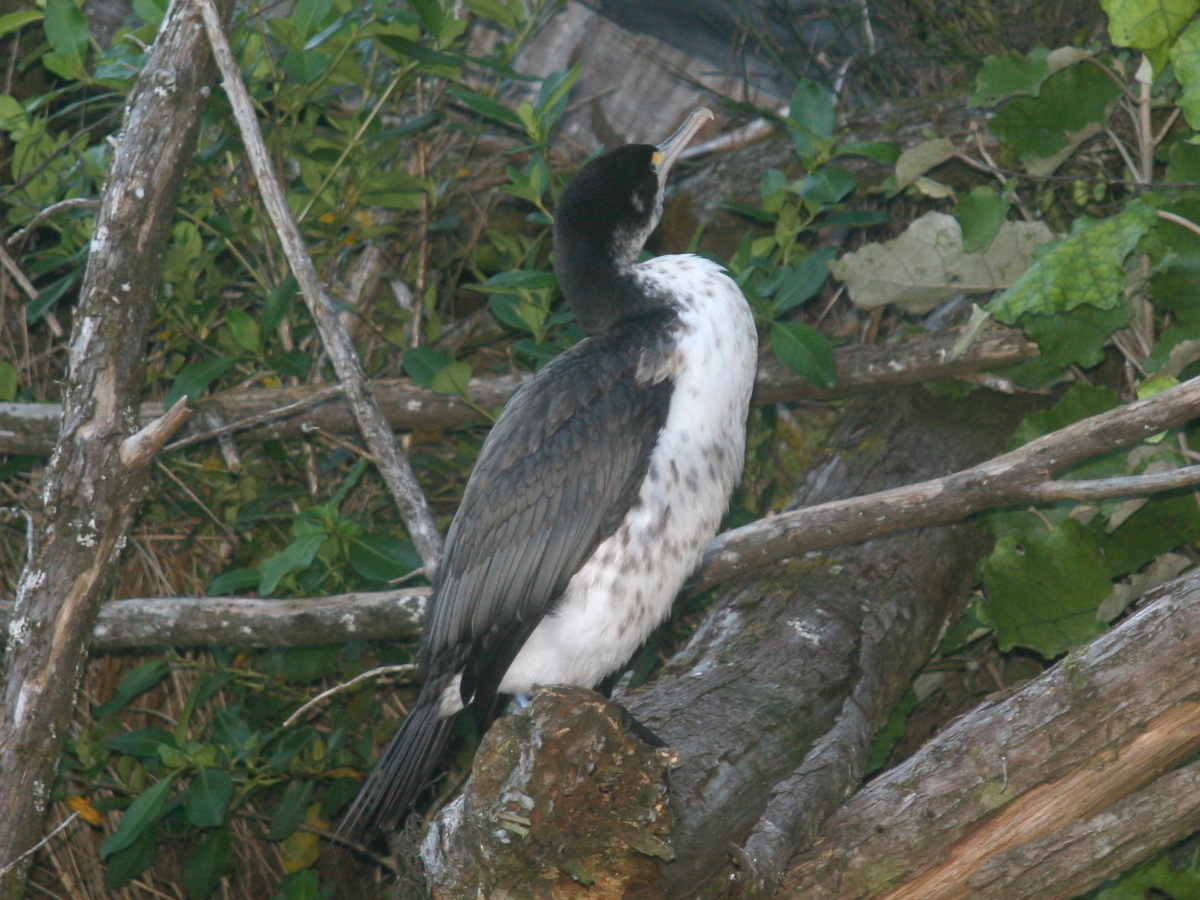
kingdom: Animalia
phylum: Chordata
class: Aves
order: Suliformes
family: Phalacrocoracidae
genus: Phalacrocorax
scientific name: Phalacrocorax varius
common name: Pied cormorant
